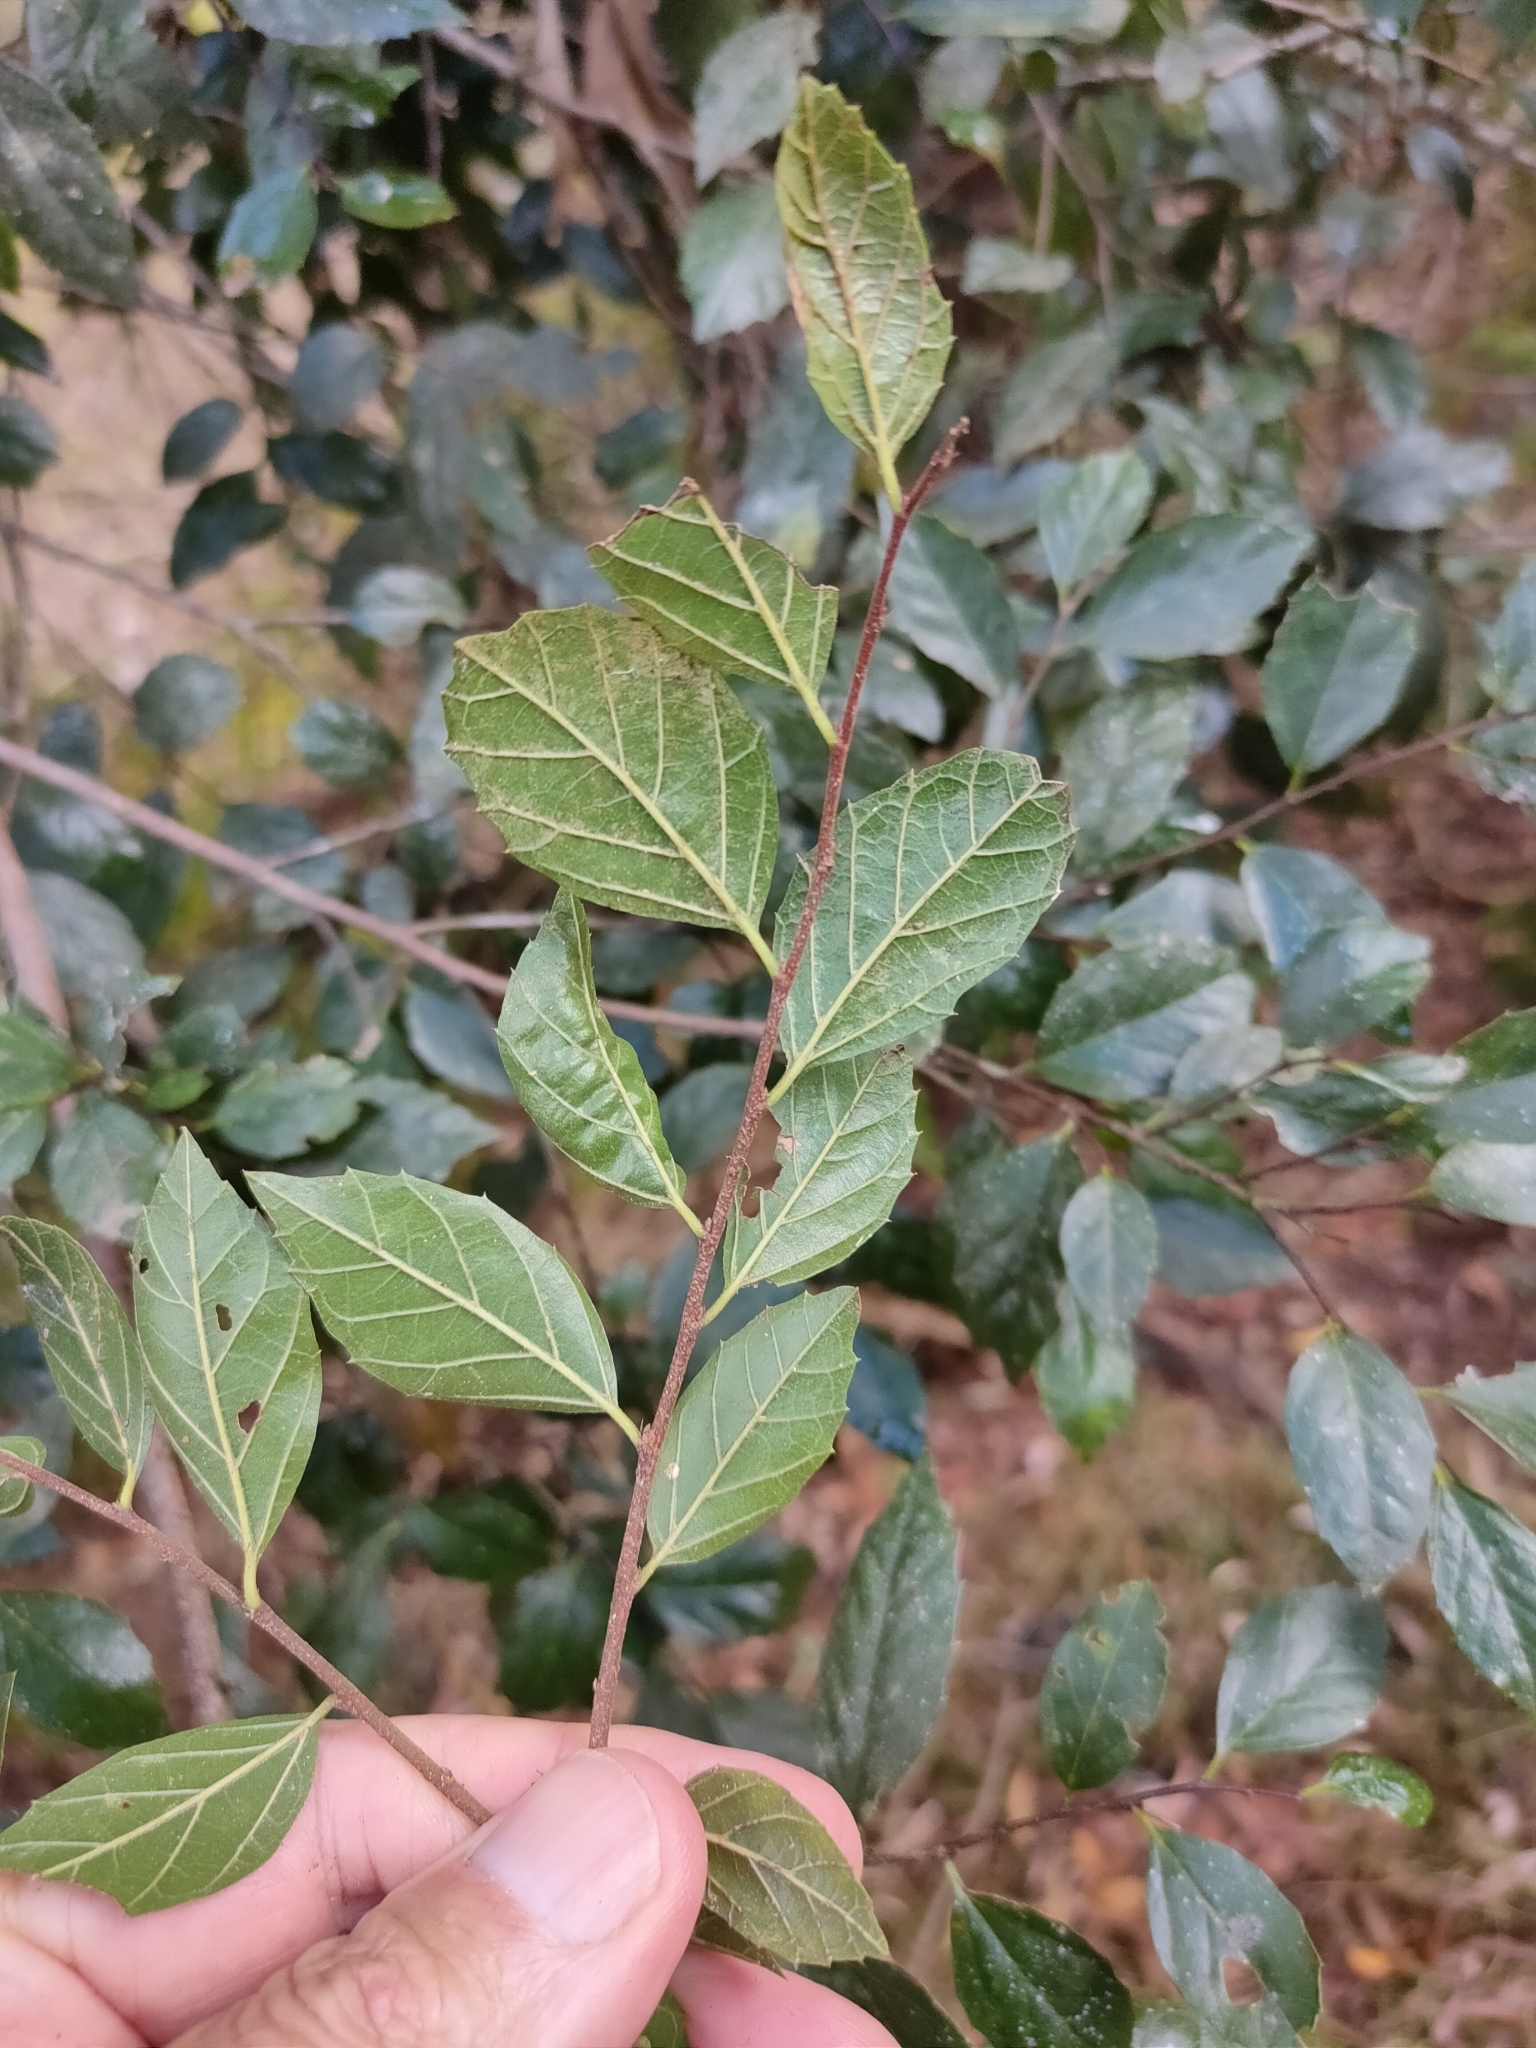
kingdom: Plantae
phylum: Tracheophyta
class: Magnoliopsida
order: Rosales
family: Cannabaceae
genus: Aphananthe
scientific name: Aphananthe philippinensis
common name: Wild holly
